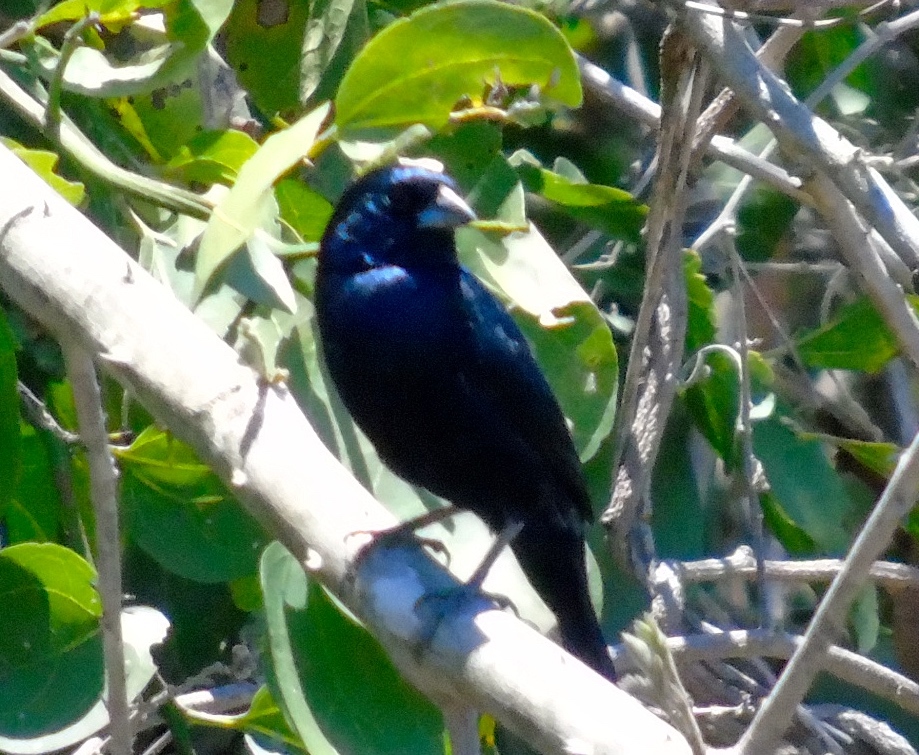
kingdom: Animalia
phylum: Chordata
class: Aves
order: Passeriformes
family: Thraupidae
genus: Volatinia
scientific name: Volatinia jacarina
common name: Blue-black grassquit
